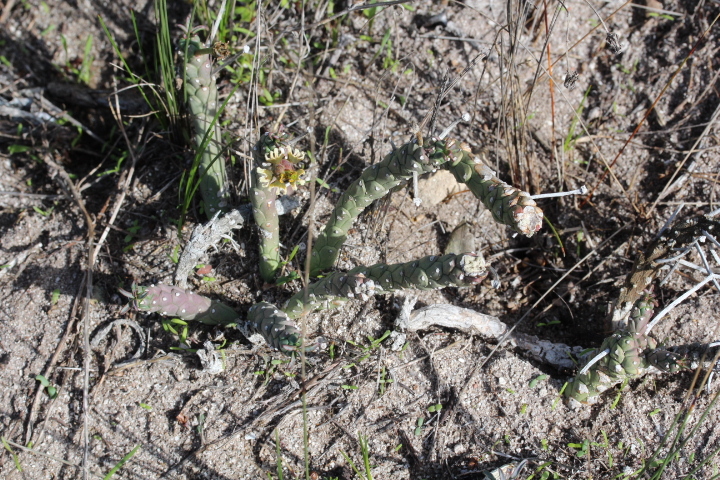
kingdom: Plantae
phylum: Tracheophyta
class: Magnoliopsida
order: Malpighiales
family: Euphorbiaceae
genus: Euphorbia
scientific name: Euphorbia caput-medusae
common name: Medusa's-head
